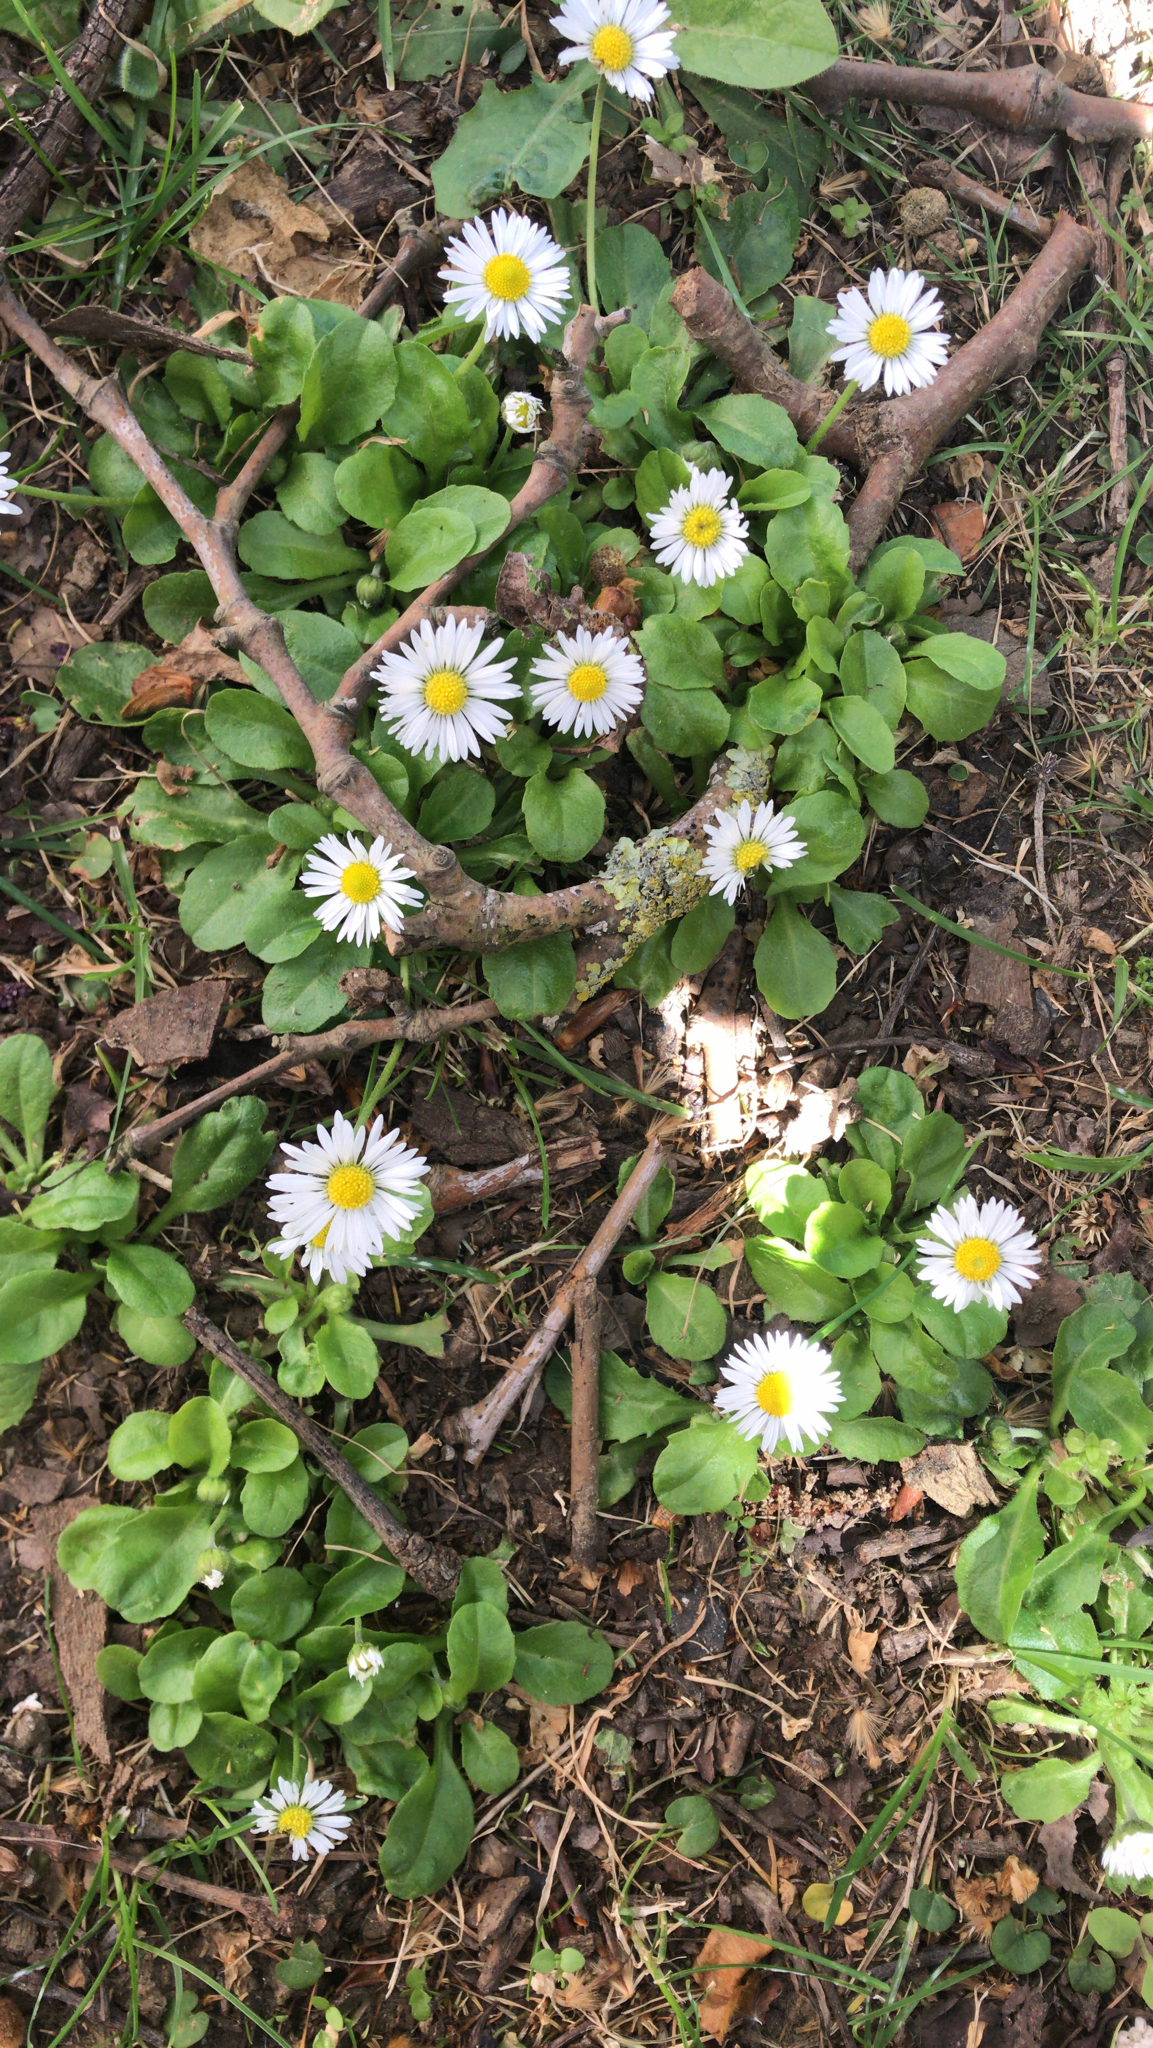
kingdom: Plantae
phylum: Tracheophyta
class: Magnoliopsida
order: Asterales
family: Asteraceae
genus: Bellis
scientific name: Bellis perennis
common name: Lawndaisy
